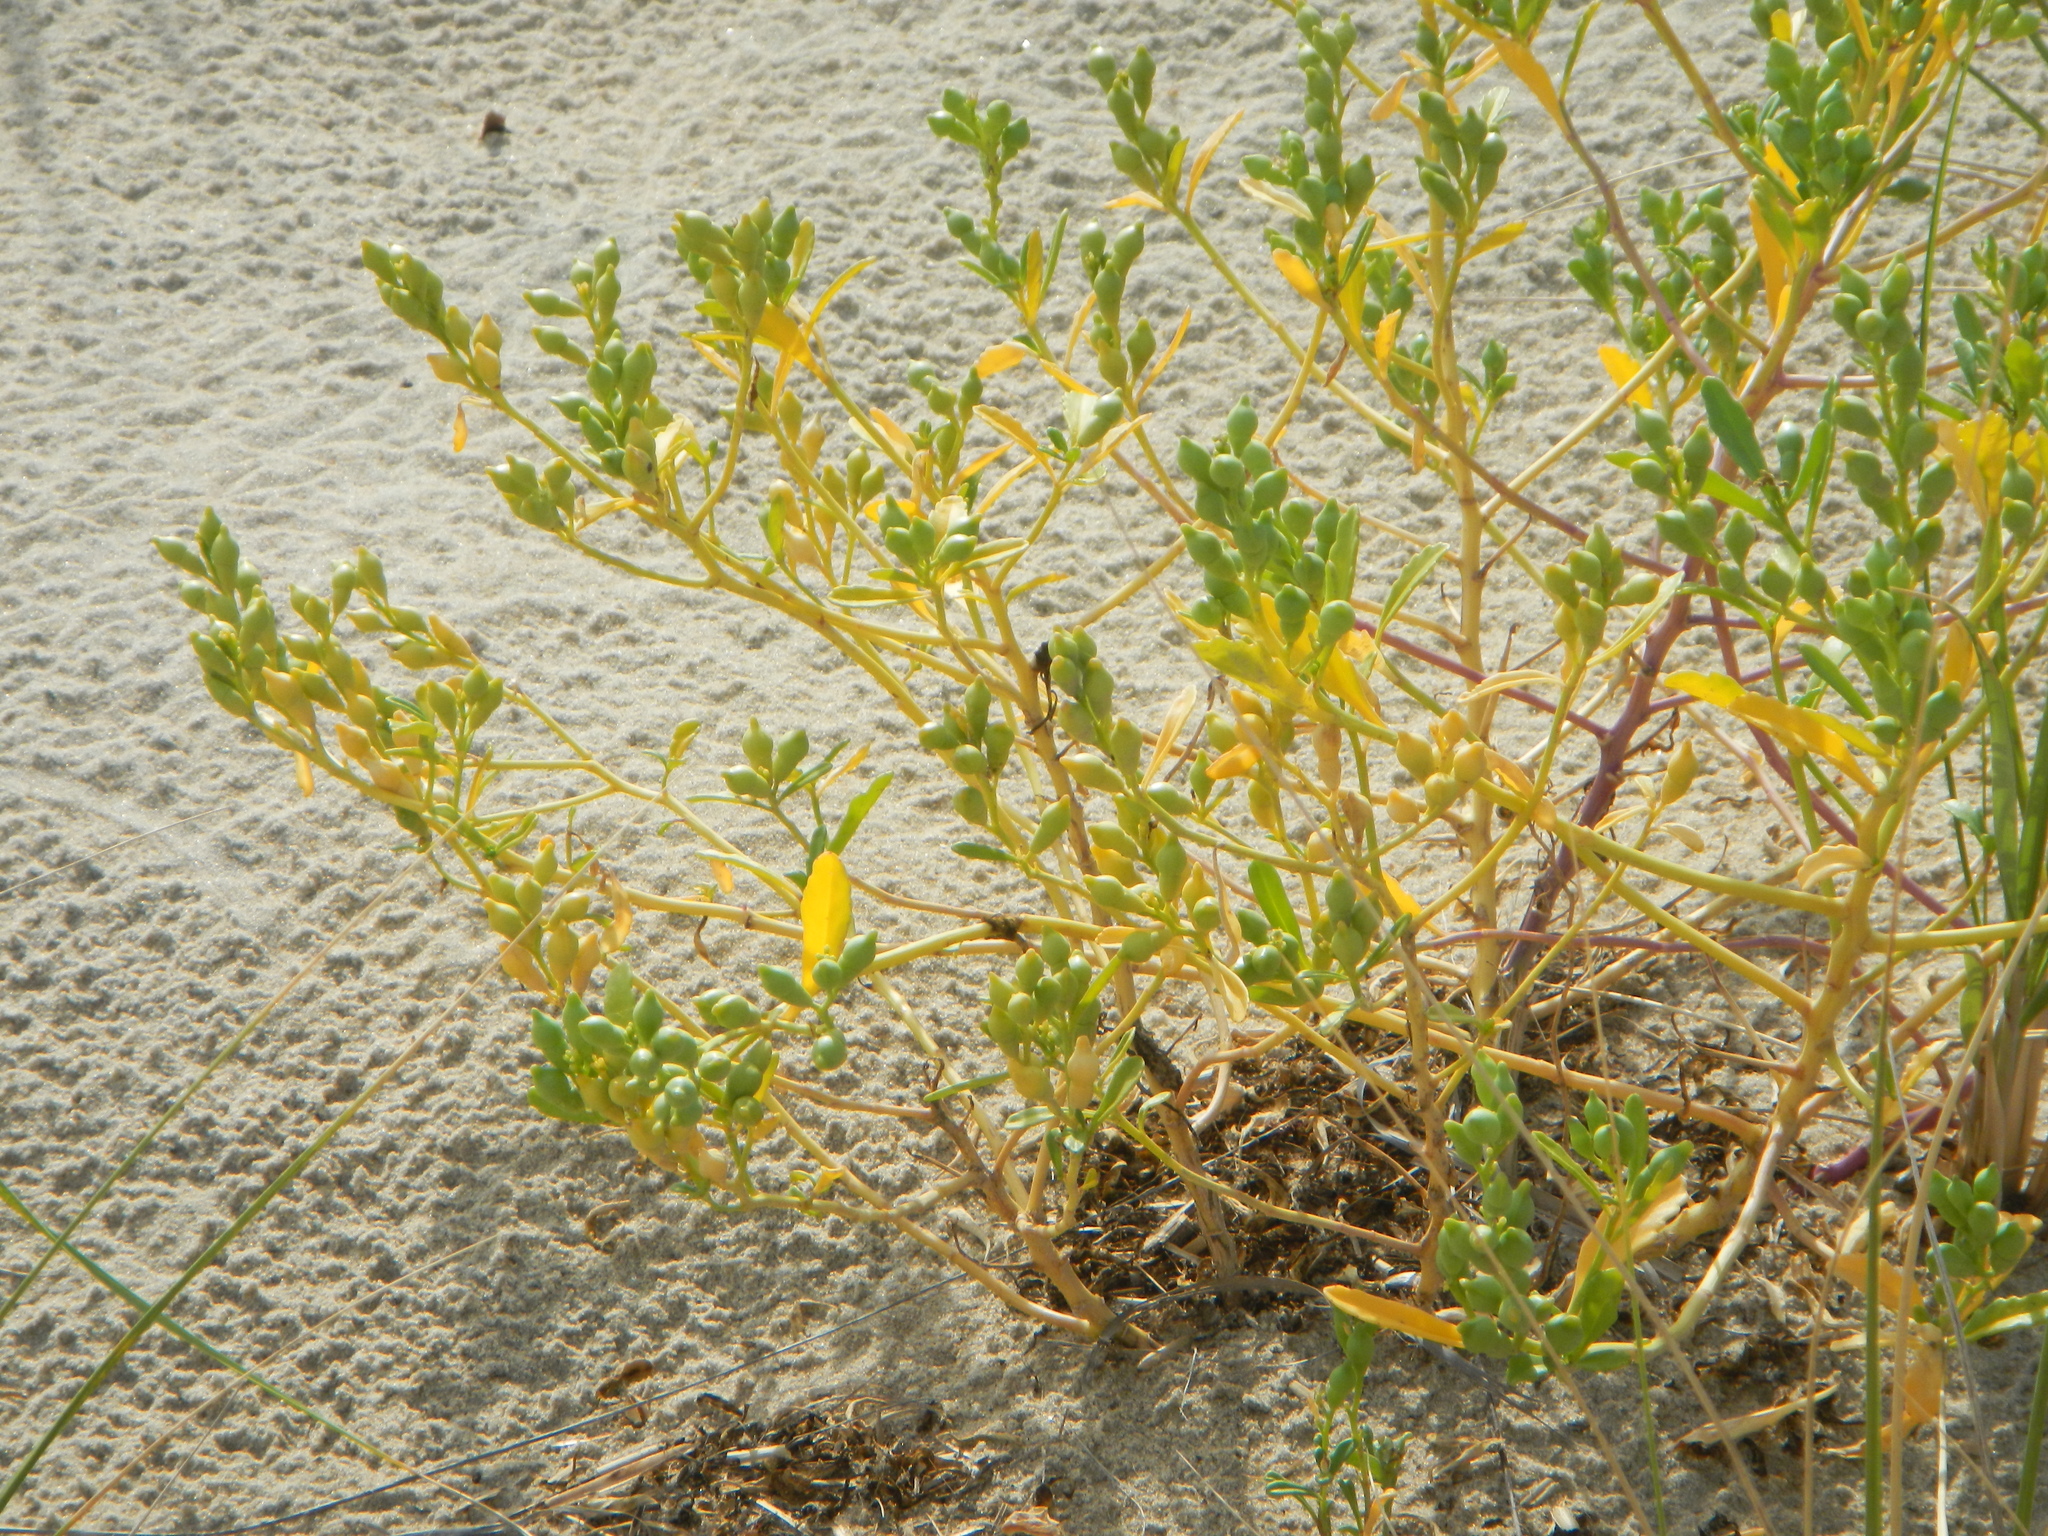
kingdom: Plantae
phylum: Tracheophyta
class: Magnoliopsida
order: Brassicales
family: Brassicaceae
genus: Cakile
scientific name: Cakile edentula
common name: American sea rocket
